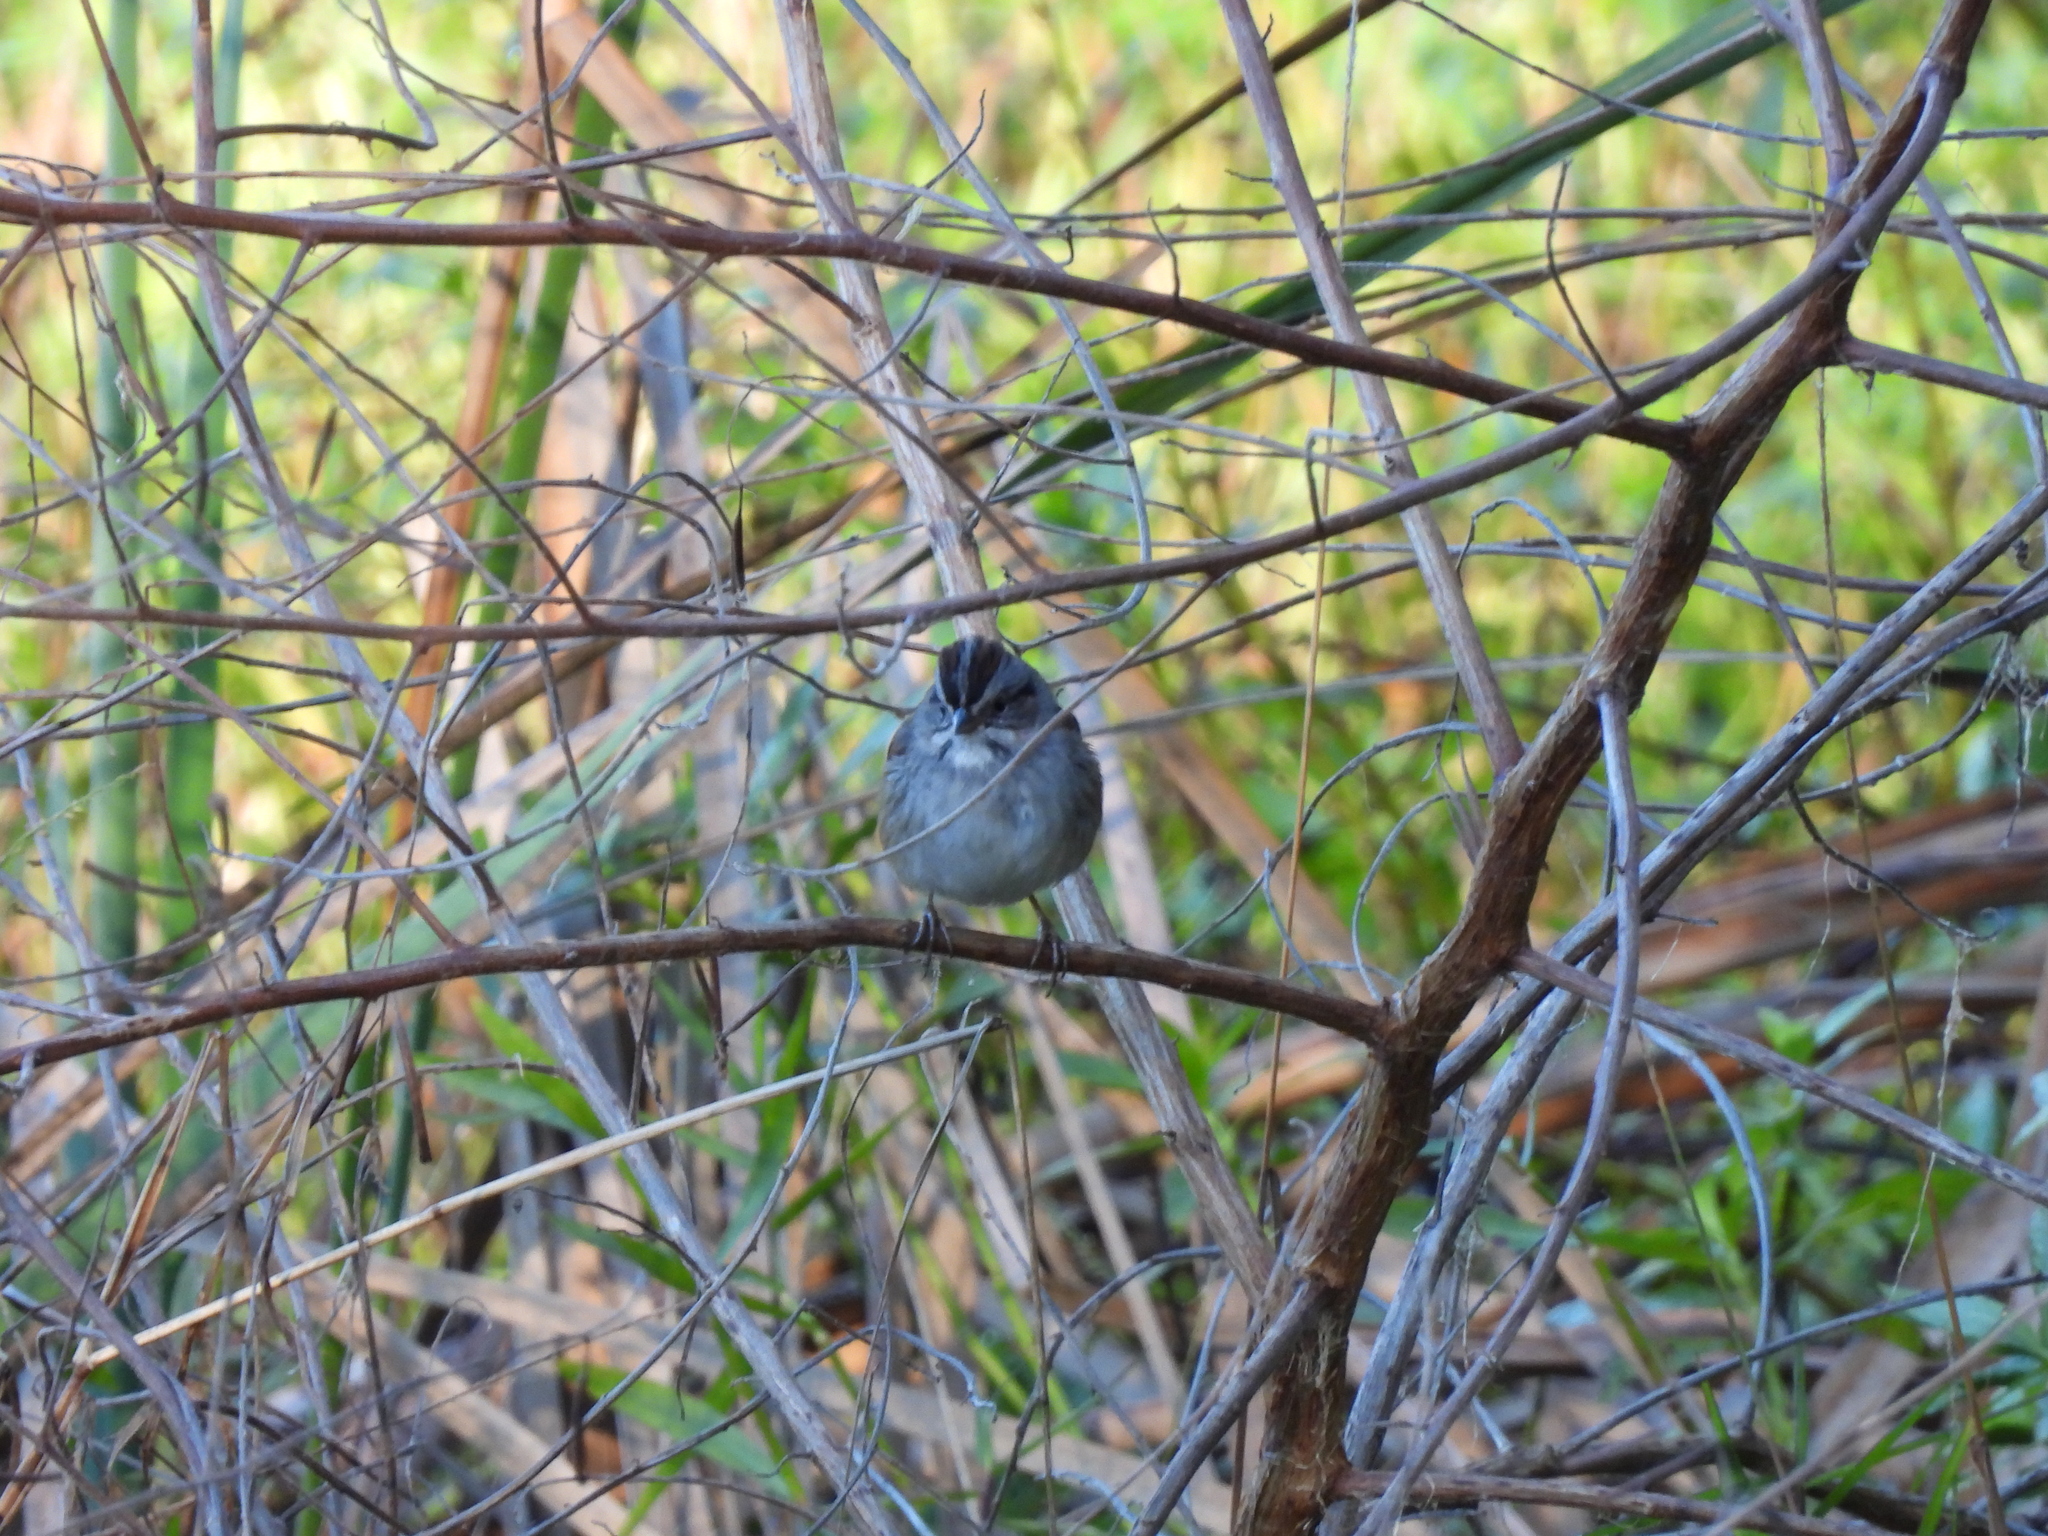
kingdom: Animalia
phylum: Chordata
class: Aves
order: Passeriformes
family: Passerellidae
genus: Melospiza
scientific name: Melospiza georgiana
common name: Swamp sparrow
